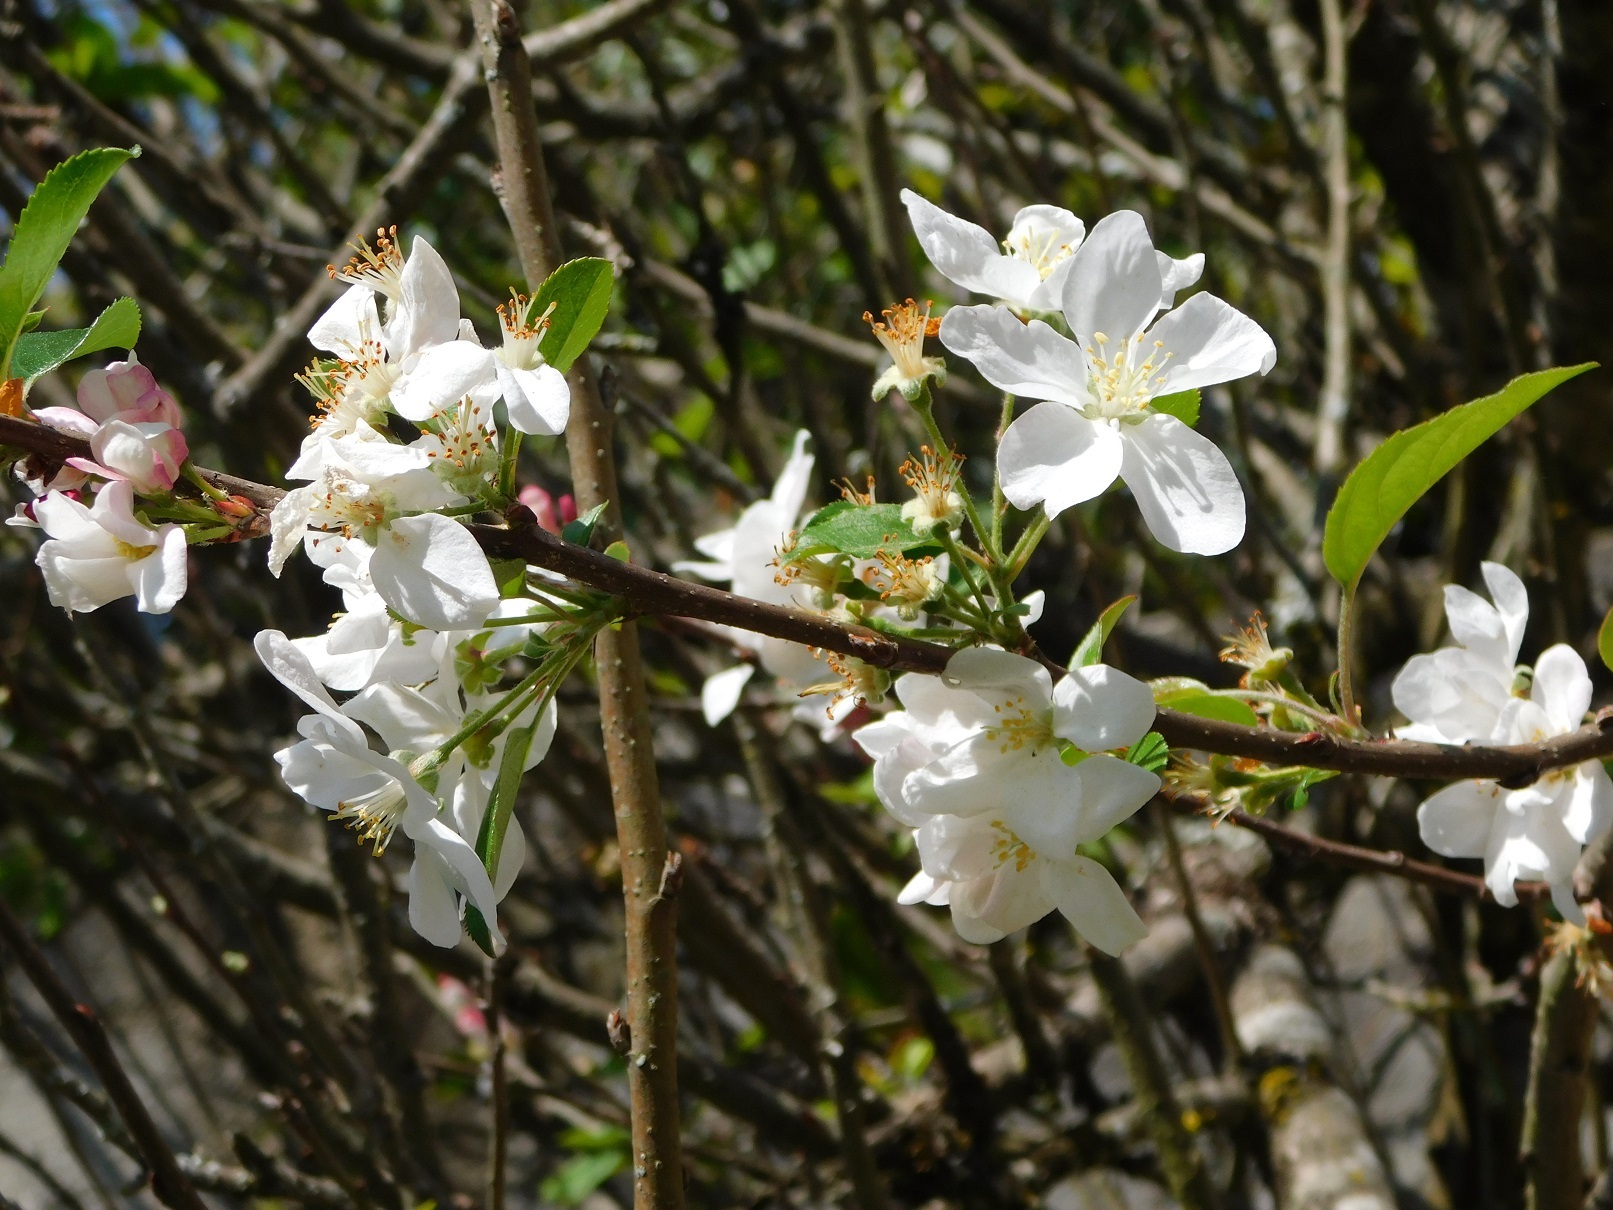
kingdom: Plantae
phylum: Tracheophyta
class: Magnoliopsida
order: Rosales
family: Rosaceae
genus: Malus
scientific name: Malus domestica
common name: Apple
